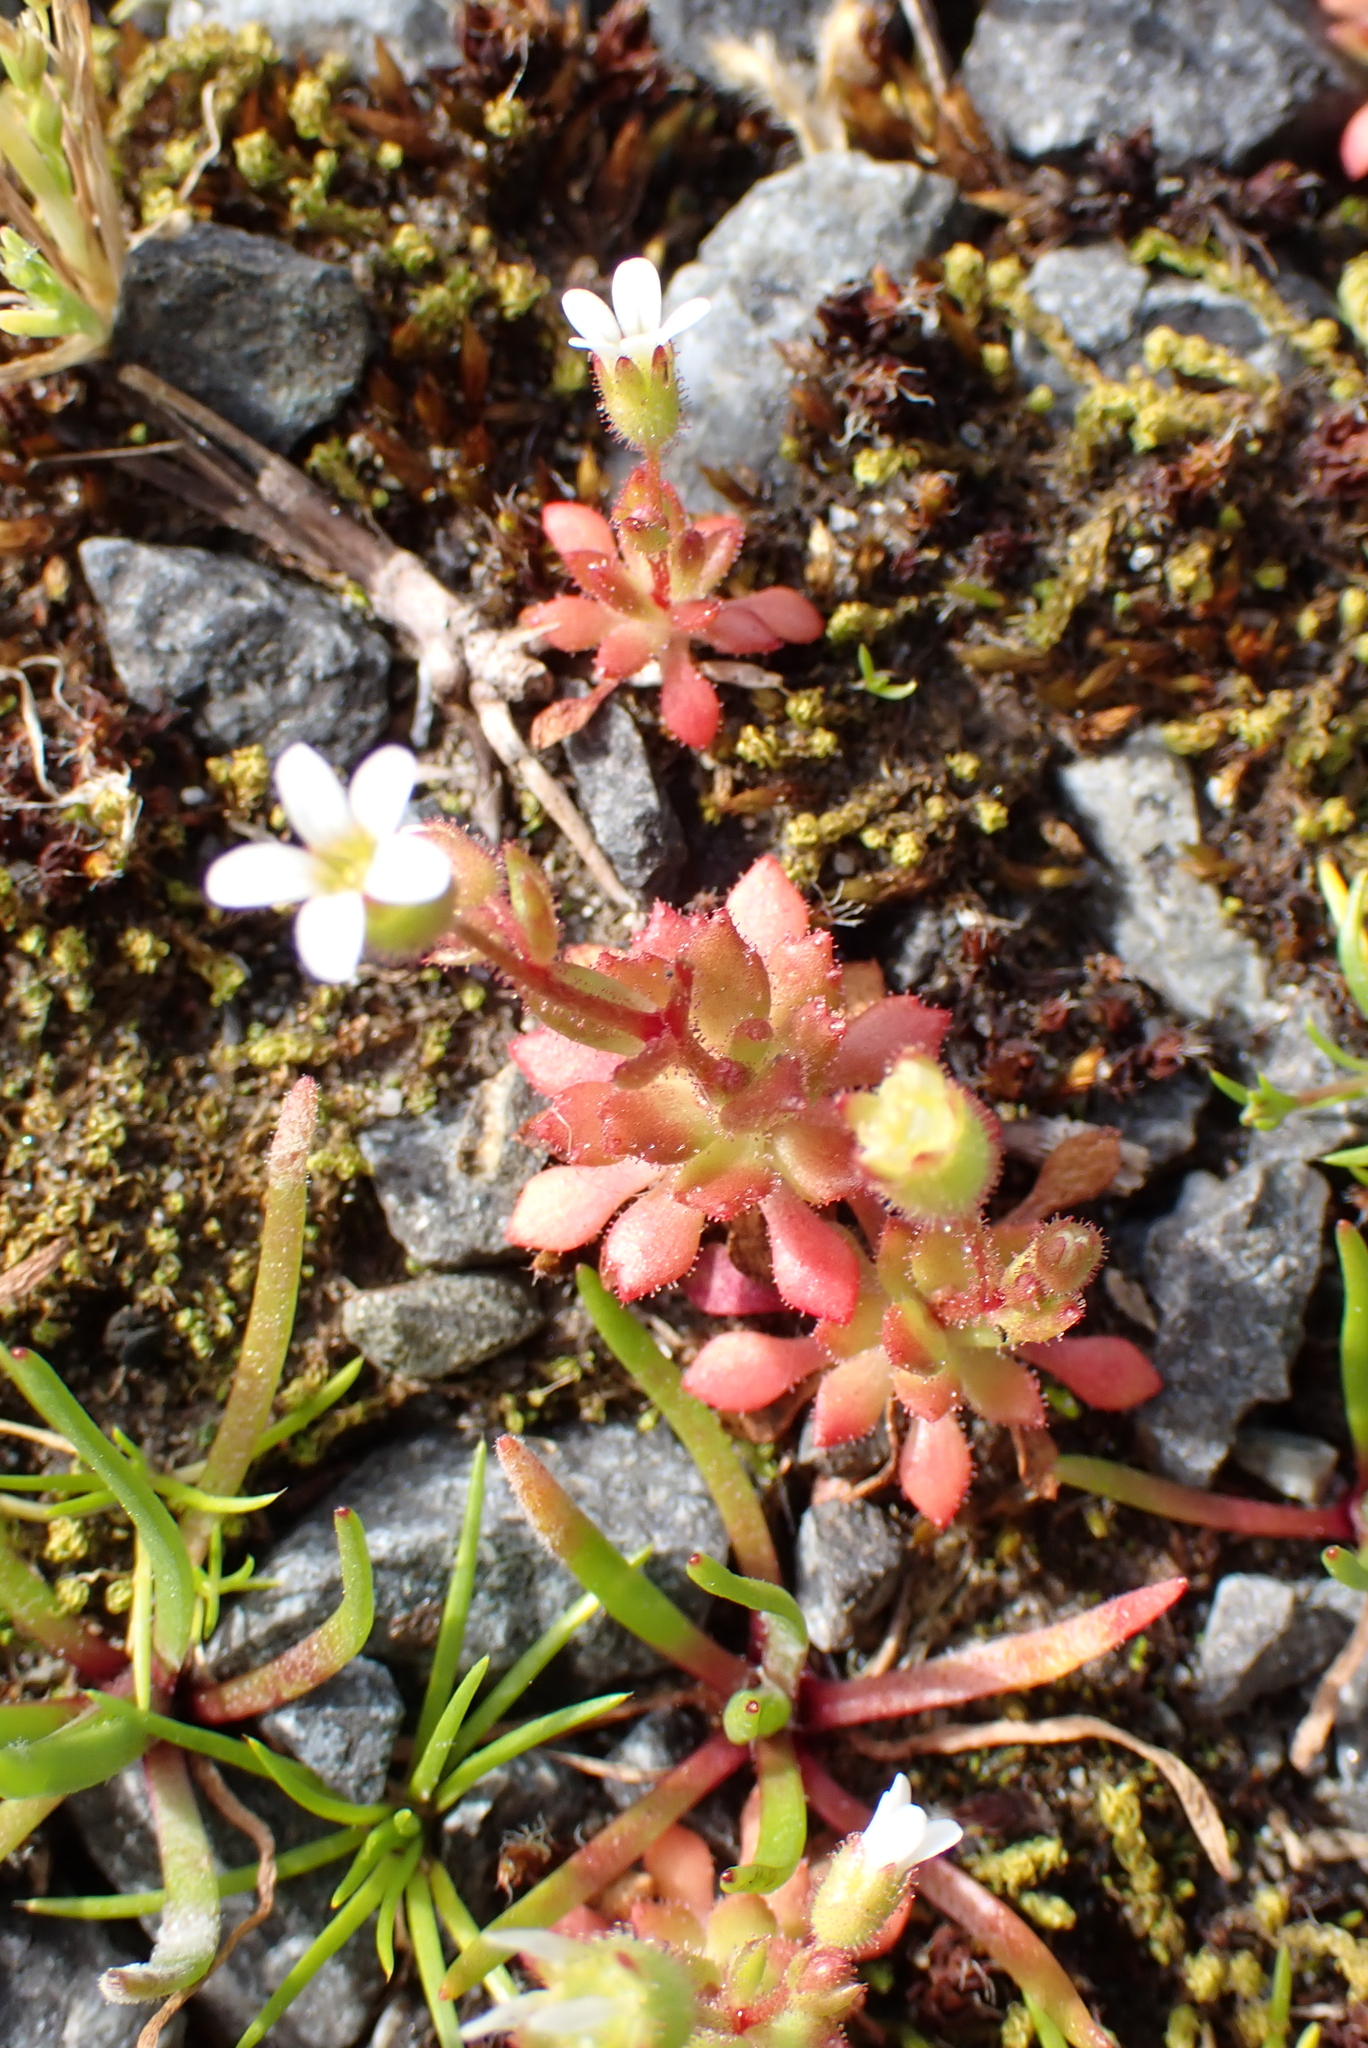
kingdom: Plantae
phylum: Tracheophyta
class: Magnoliopsida
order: Saxifragales
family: Saxifragaceae
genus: Saxifraga
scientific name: Saxifraga tridactylites
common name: Rue-leaved saxifrage
